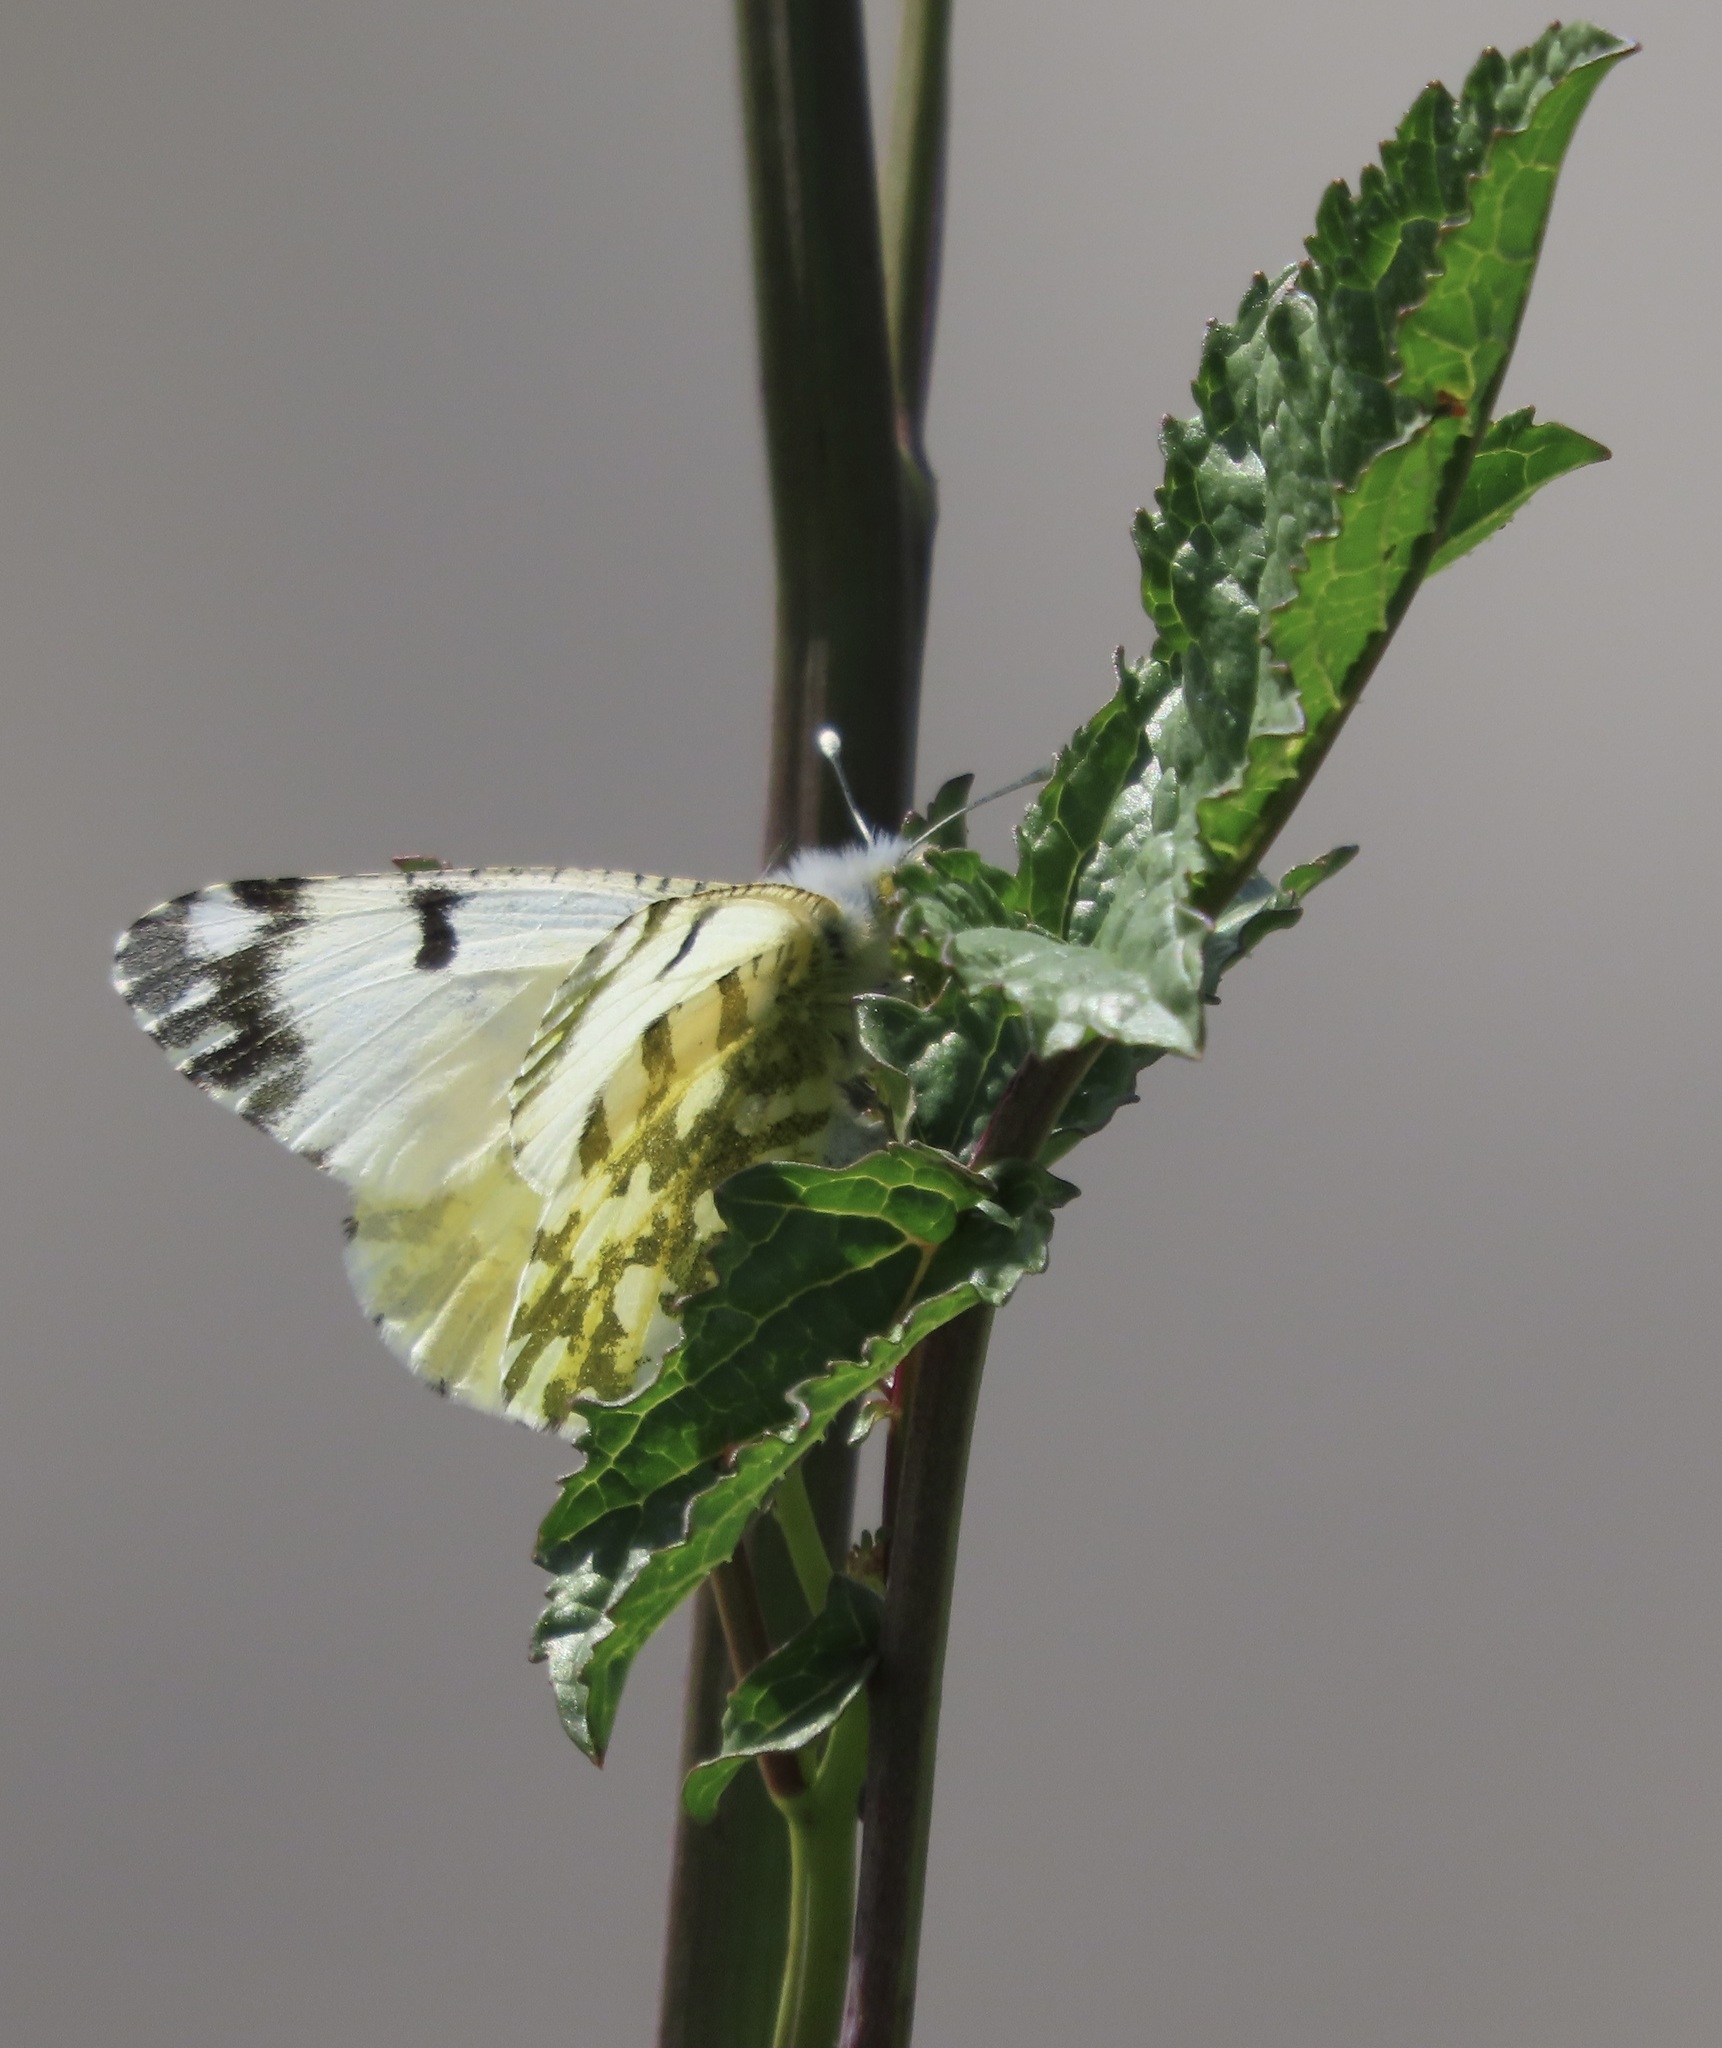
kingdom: Animalia
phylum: Arthropoda
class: Insecta
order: Lepidoptera
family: Pieridae
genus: Euchloe
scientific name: Euchloe ausonides
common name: Creamy marblewing
